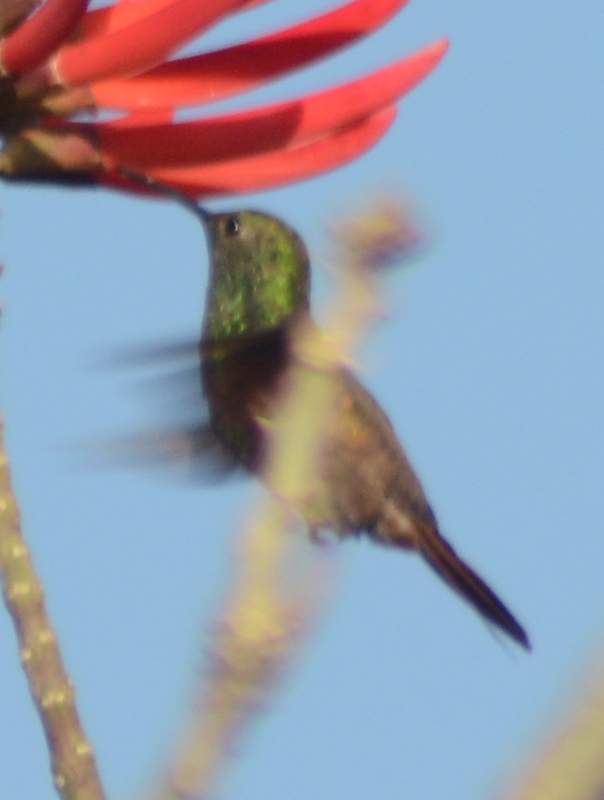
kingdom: Animalia
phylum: Chordata
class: Aves
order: Apodiformes
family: Trochilidae
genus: Saucerottia
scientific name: Saucerottia beryllina
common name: Berylline hummingbird
